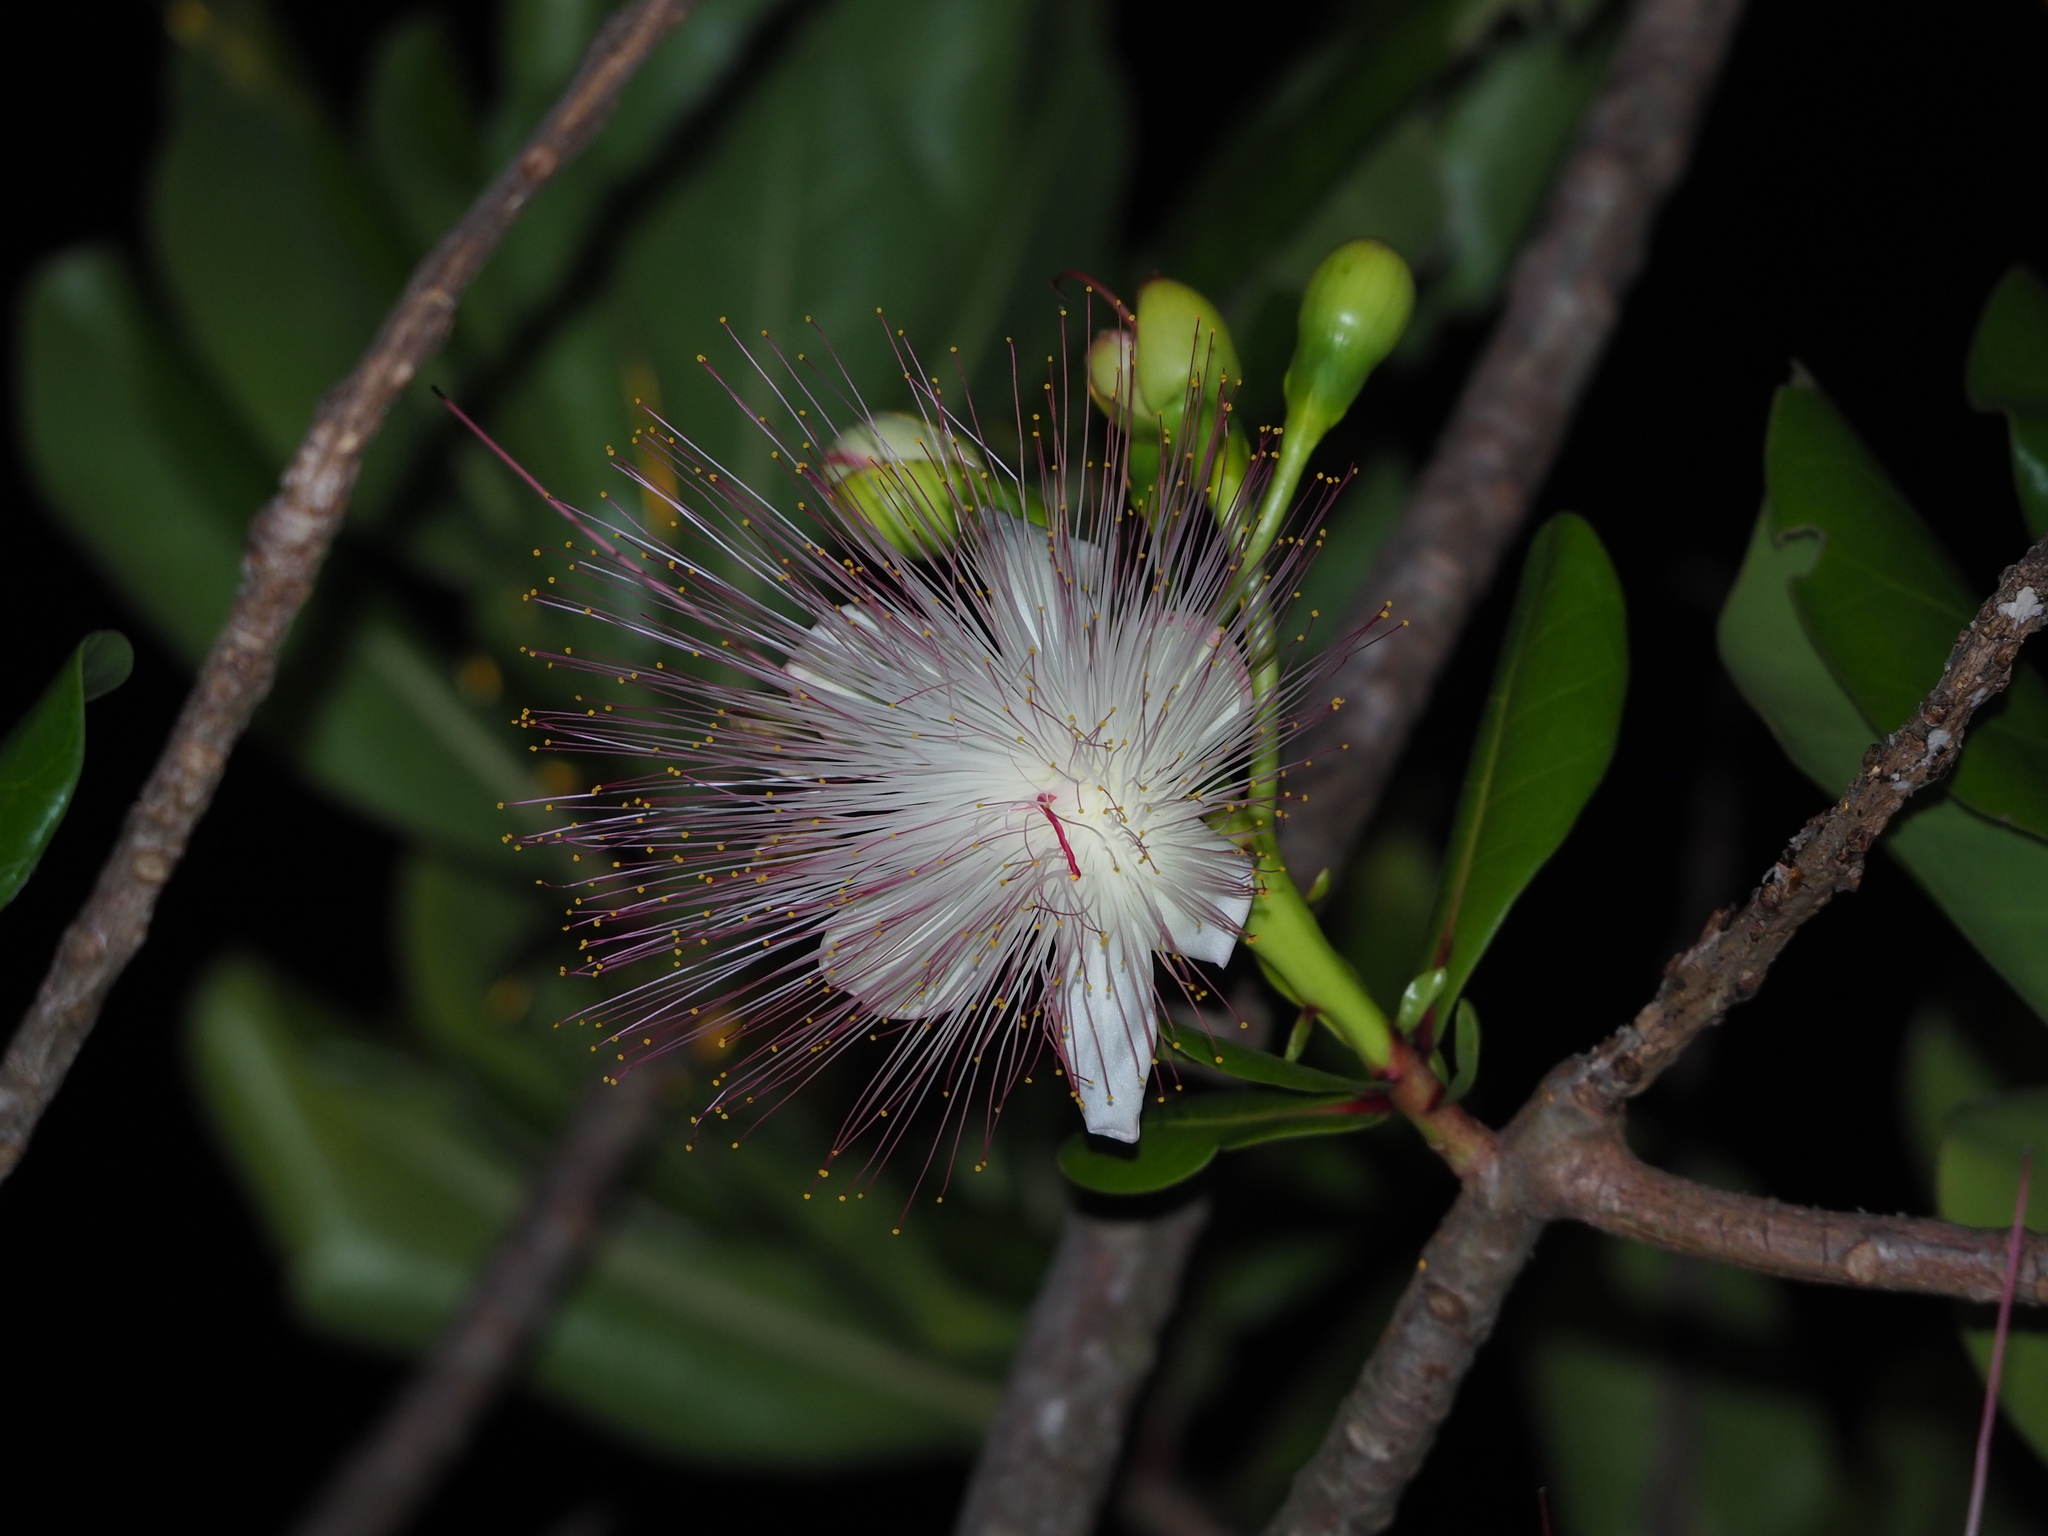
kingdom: Plantae
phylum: Tracheophyta
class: Magnoliopsida
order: Ericales
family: Lecythidaceae
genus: Barringtonia
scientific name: Barringtonia asiatica
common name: Mango-pine
